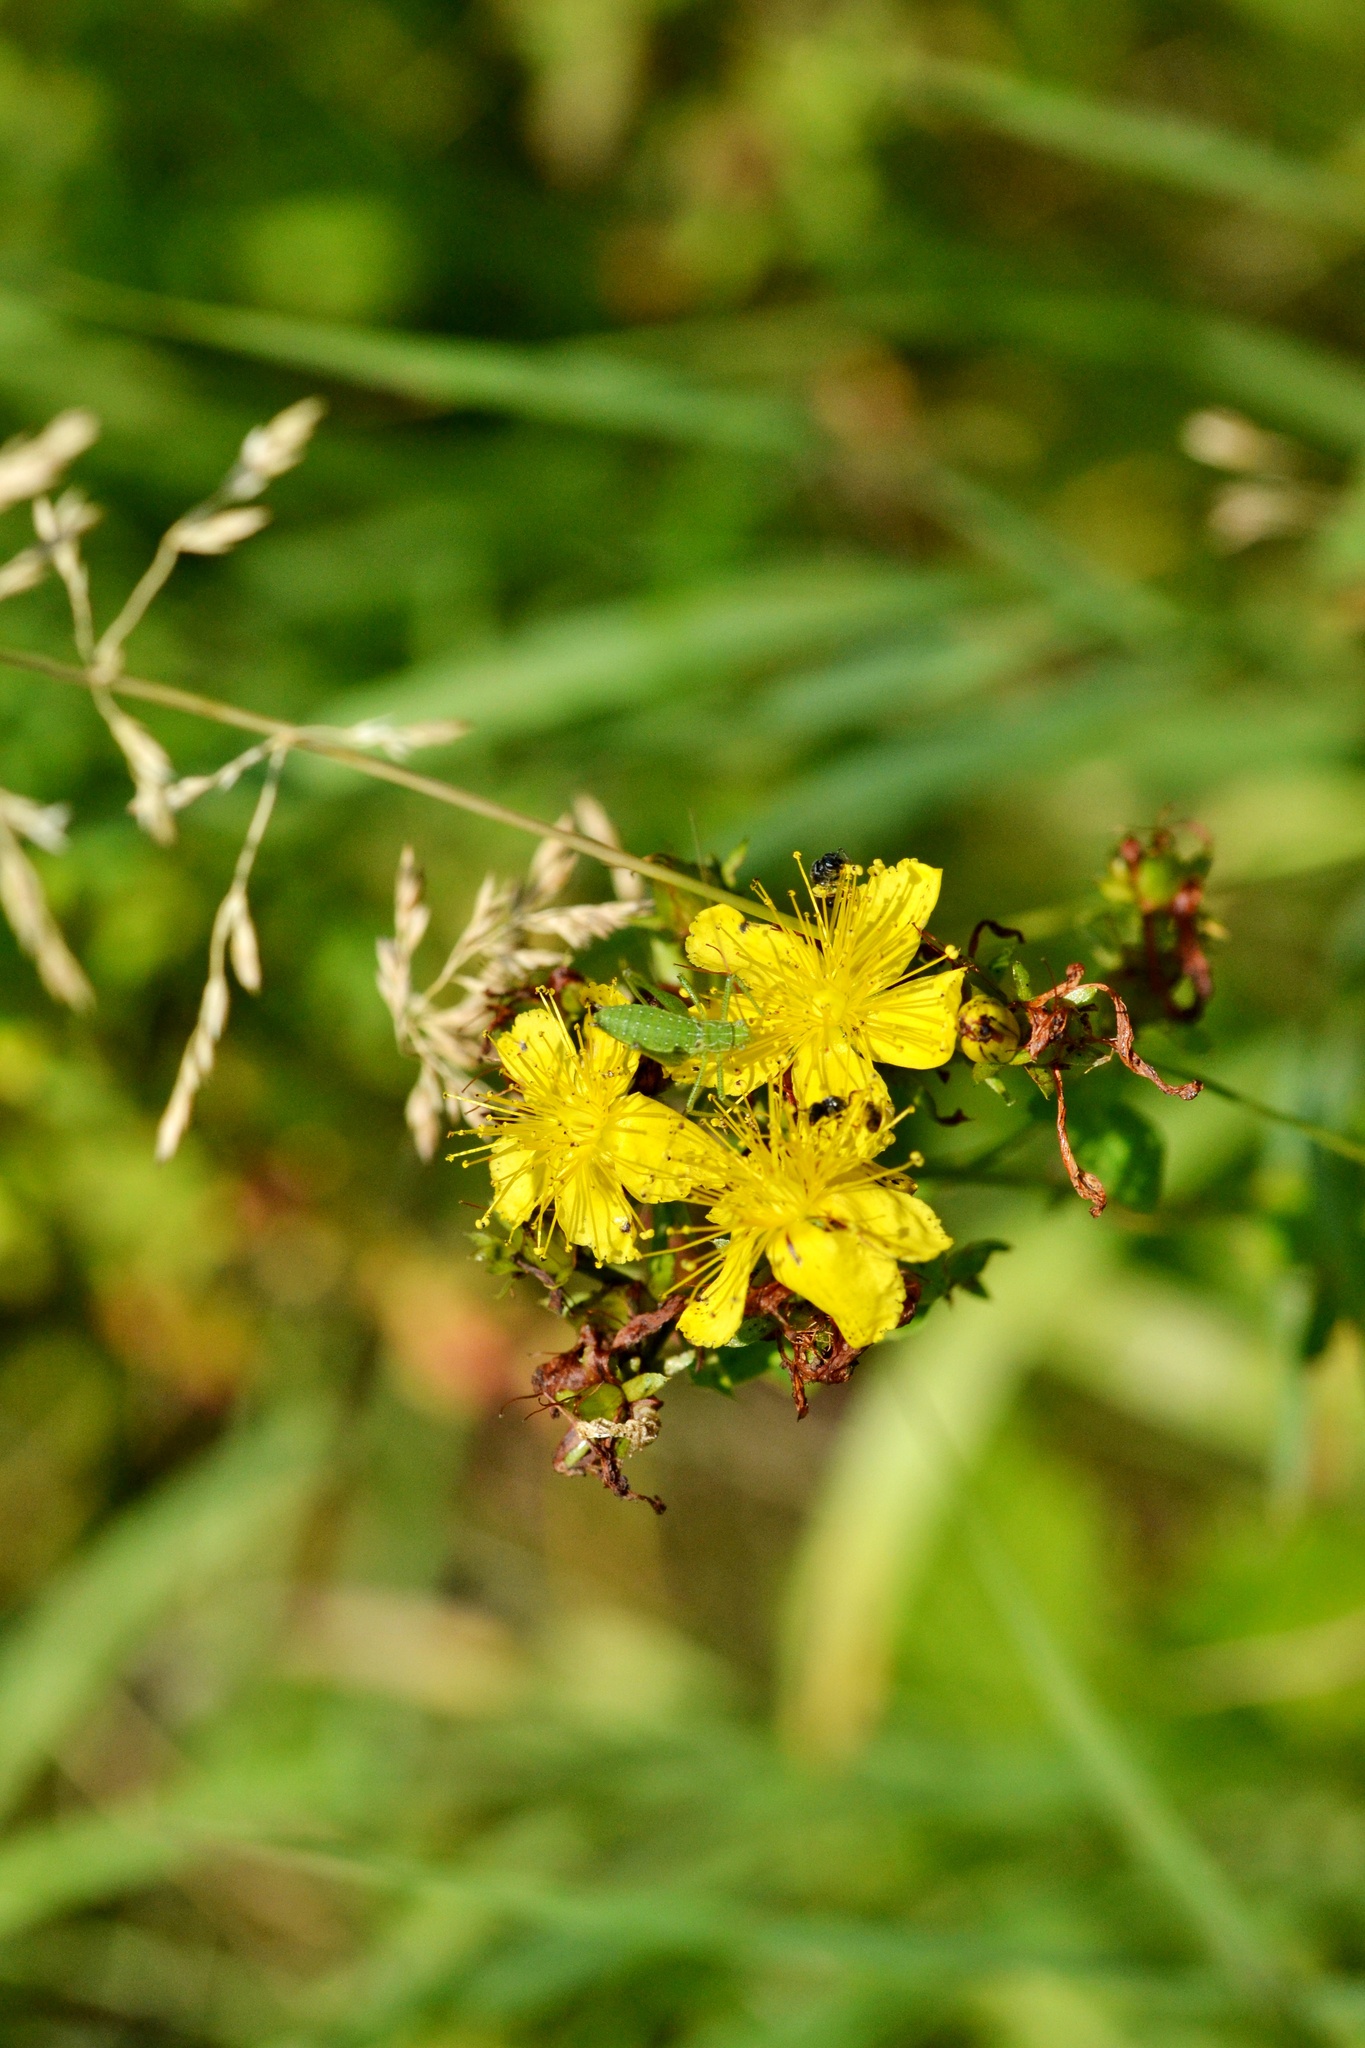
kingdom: Plantae
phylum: Tracheophyta
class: Magnoliopsida
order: Malpighiales
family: Hypericaceae
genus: Hypericum
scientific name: Hypericum perforatum
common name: Common st. johnswort
